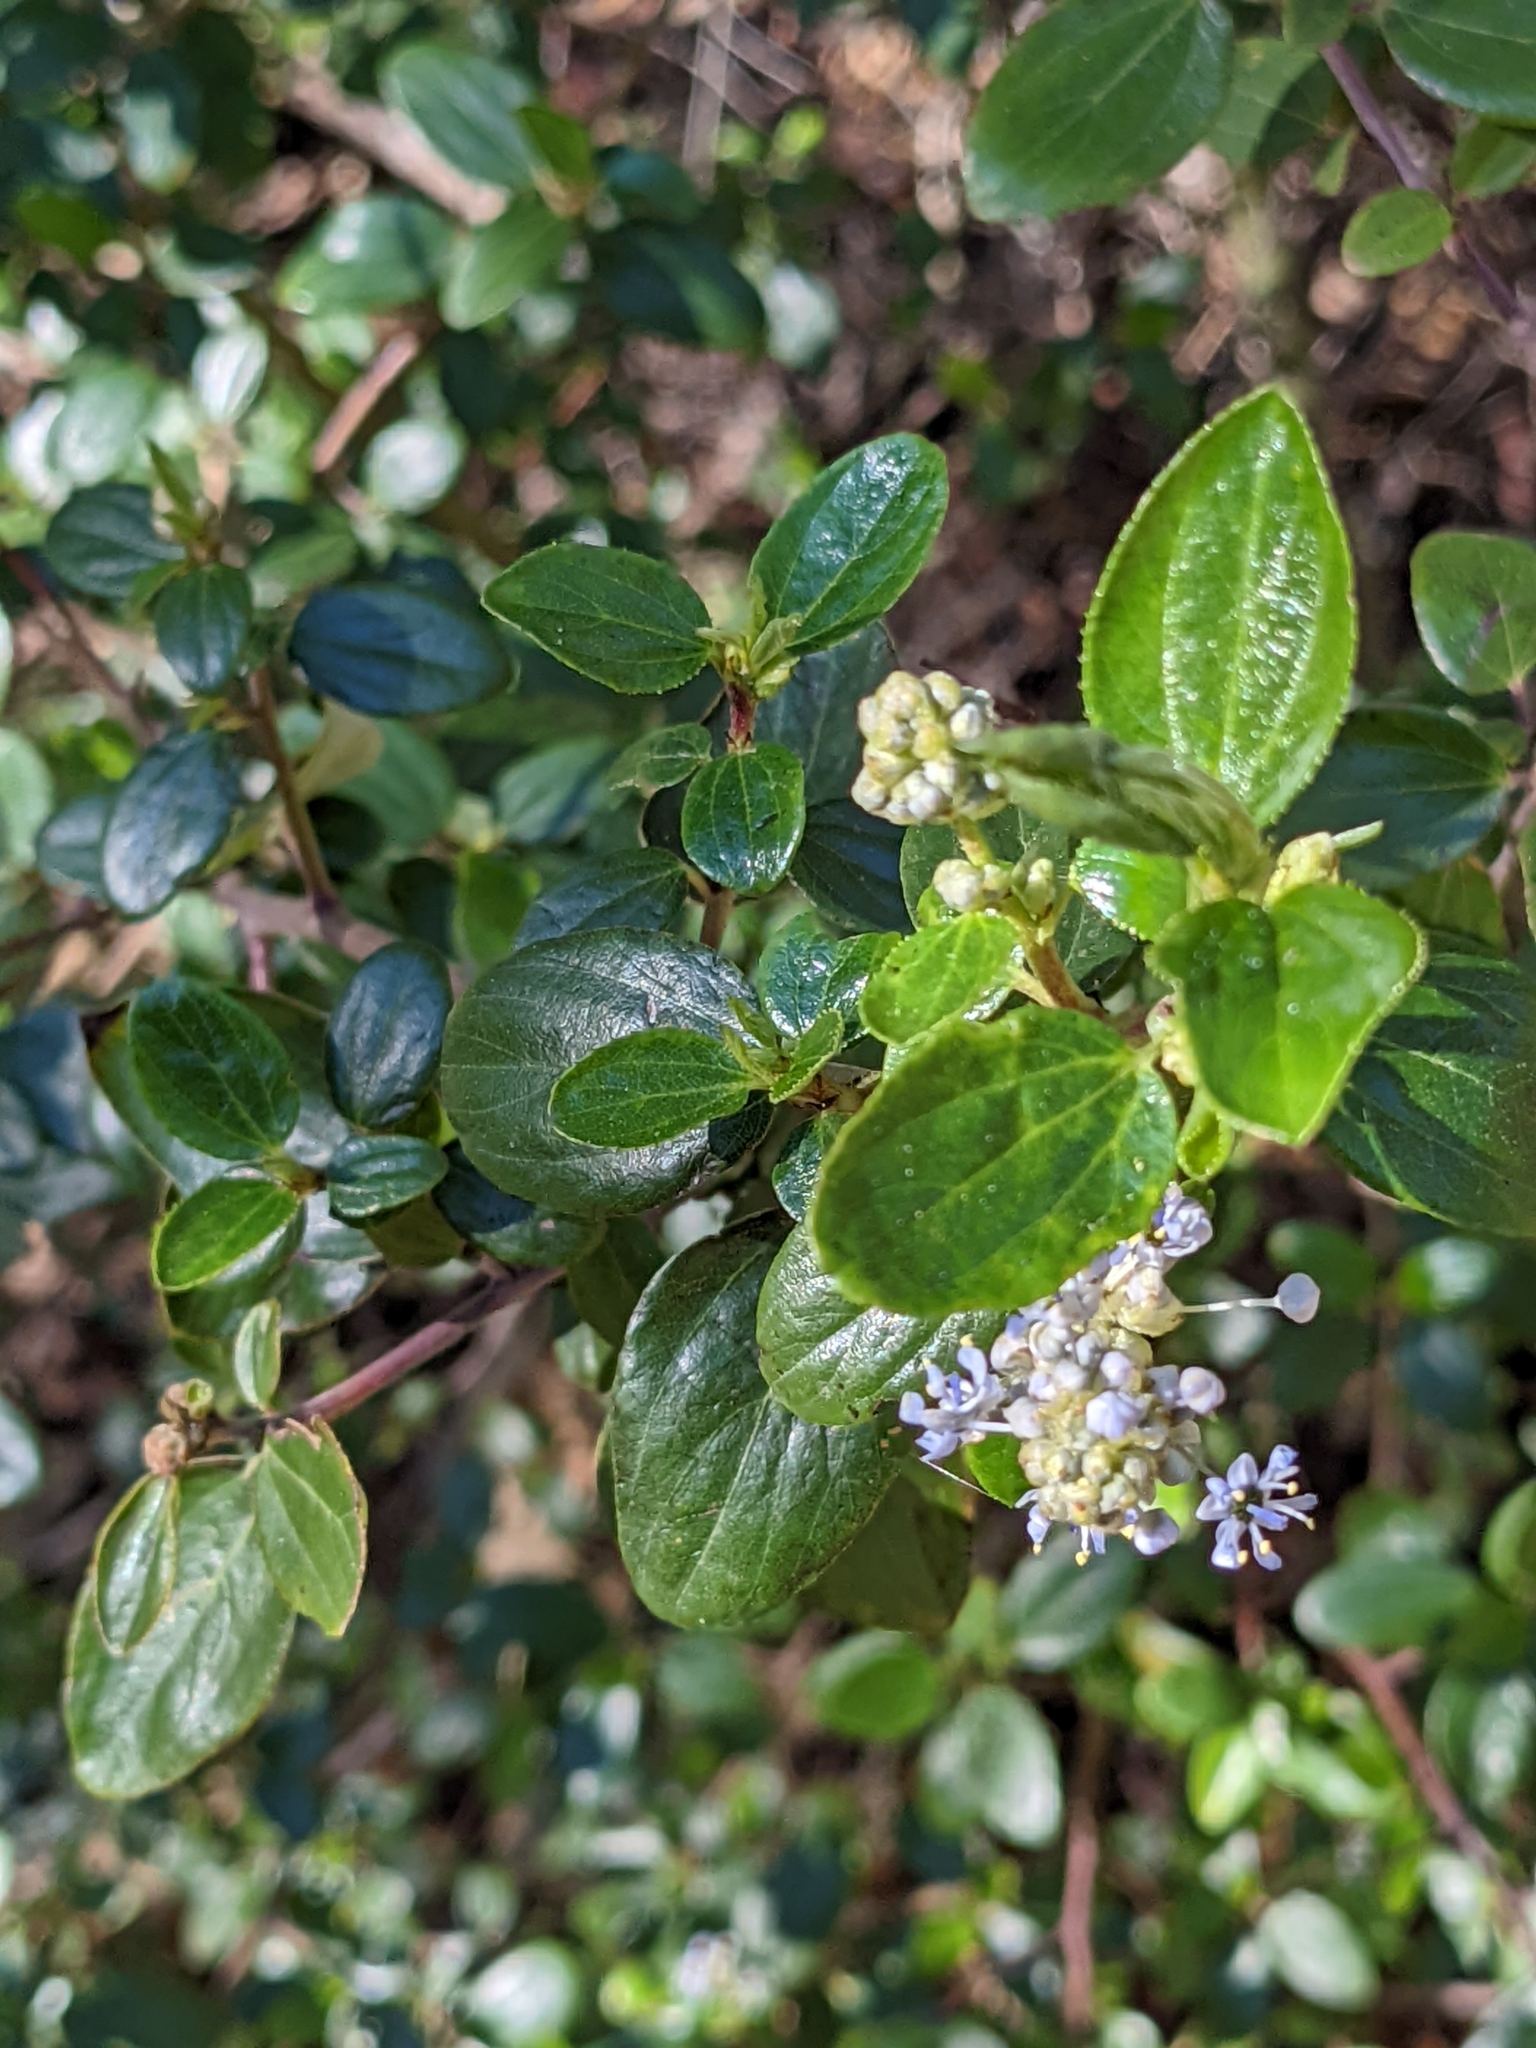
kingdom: Plantae
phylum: Tracheophyta
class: Magnoliopsida
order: Rosales
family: Rhamnaceae
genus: Ceanothus
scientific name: Ceanothus oliganthus
